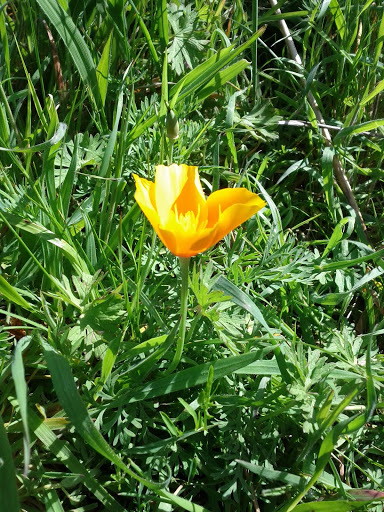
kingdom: Plantae
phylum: Tracheophyta
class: Magnoliopsida
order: Ranunculales
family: Papaveraceae
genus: Eschscholzia
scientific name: Eschscholzia californica
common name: California poppy
